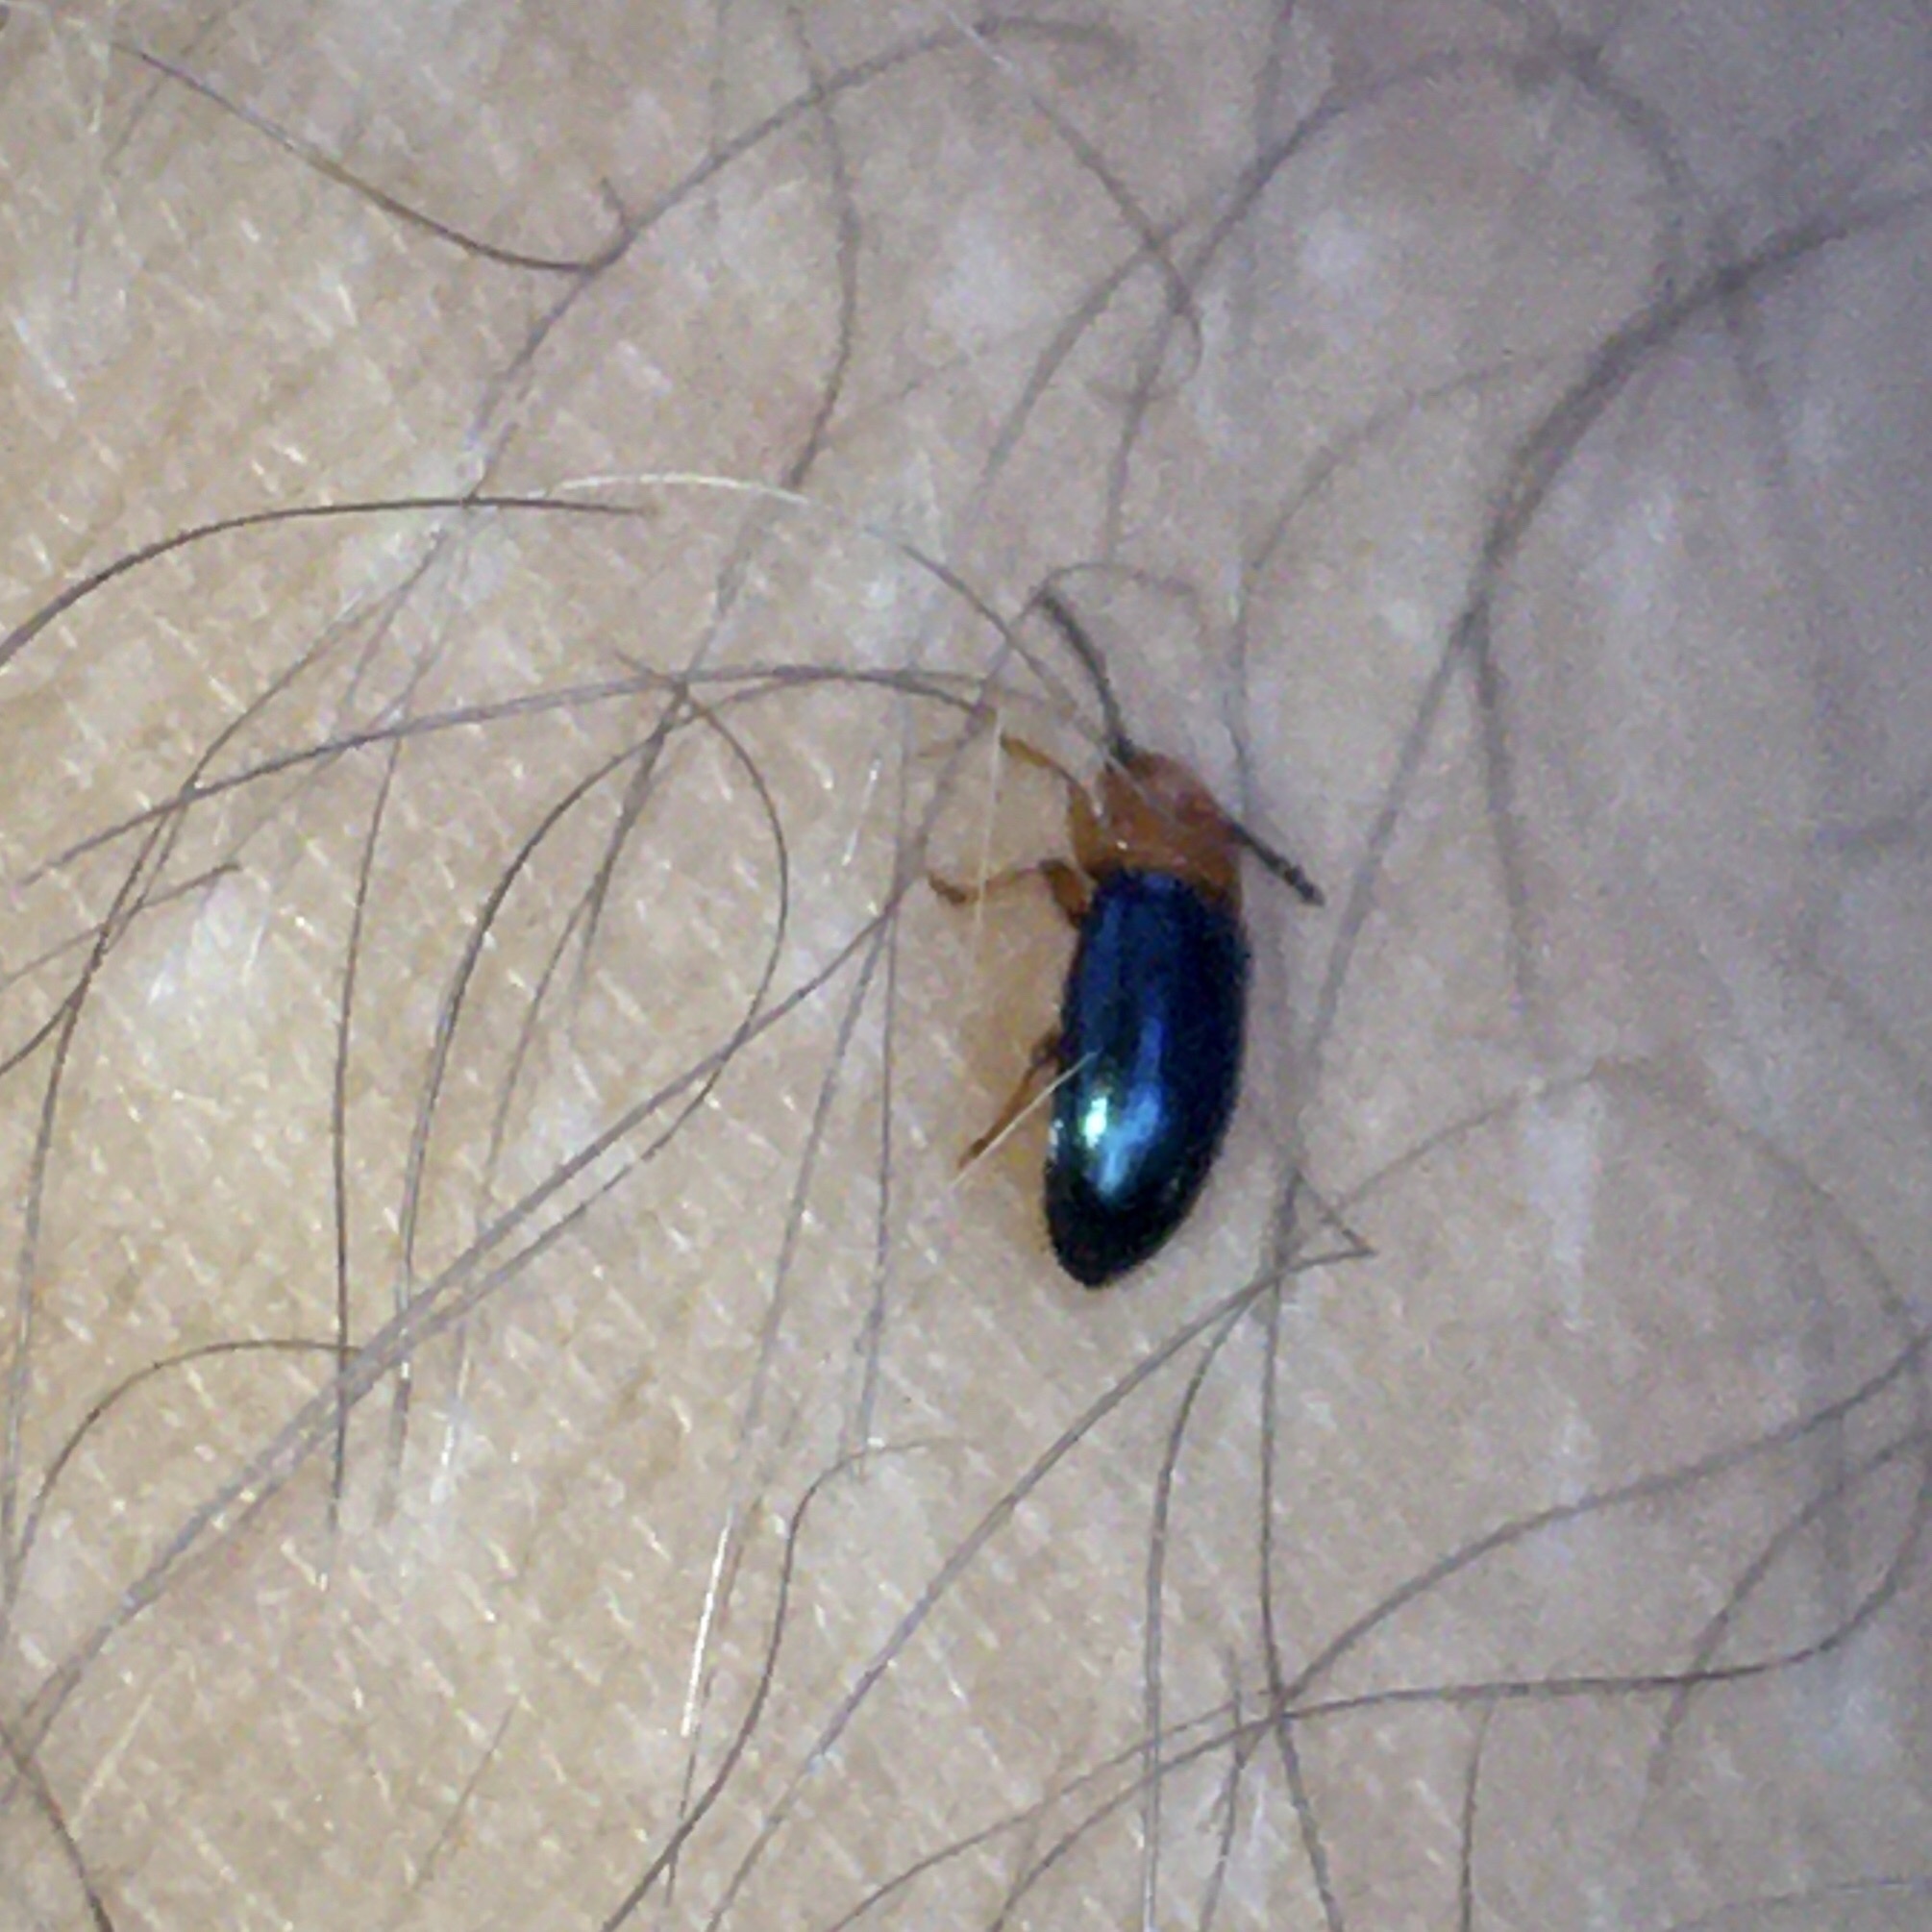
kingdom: Animalia
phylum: Arthropoda
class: Insecta
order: Coleoptera
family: Erotylidae
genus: Triplax
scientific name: Triplax aenea
